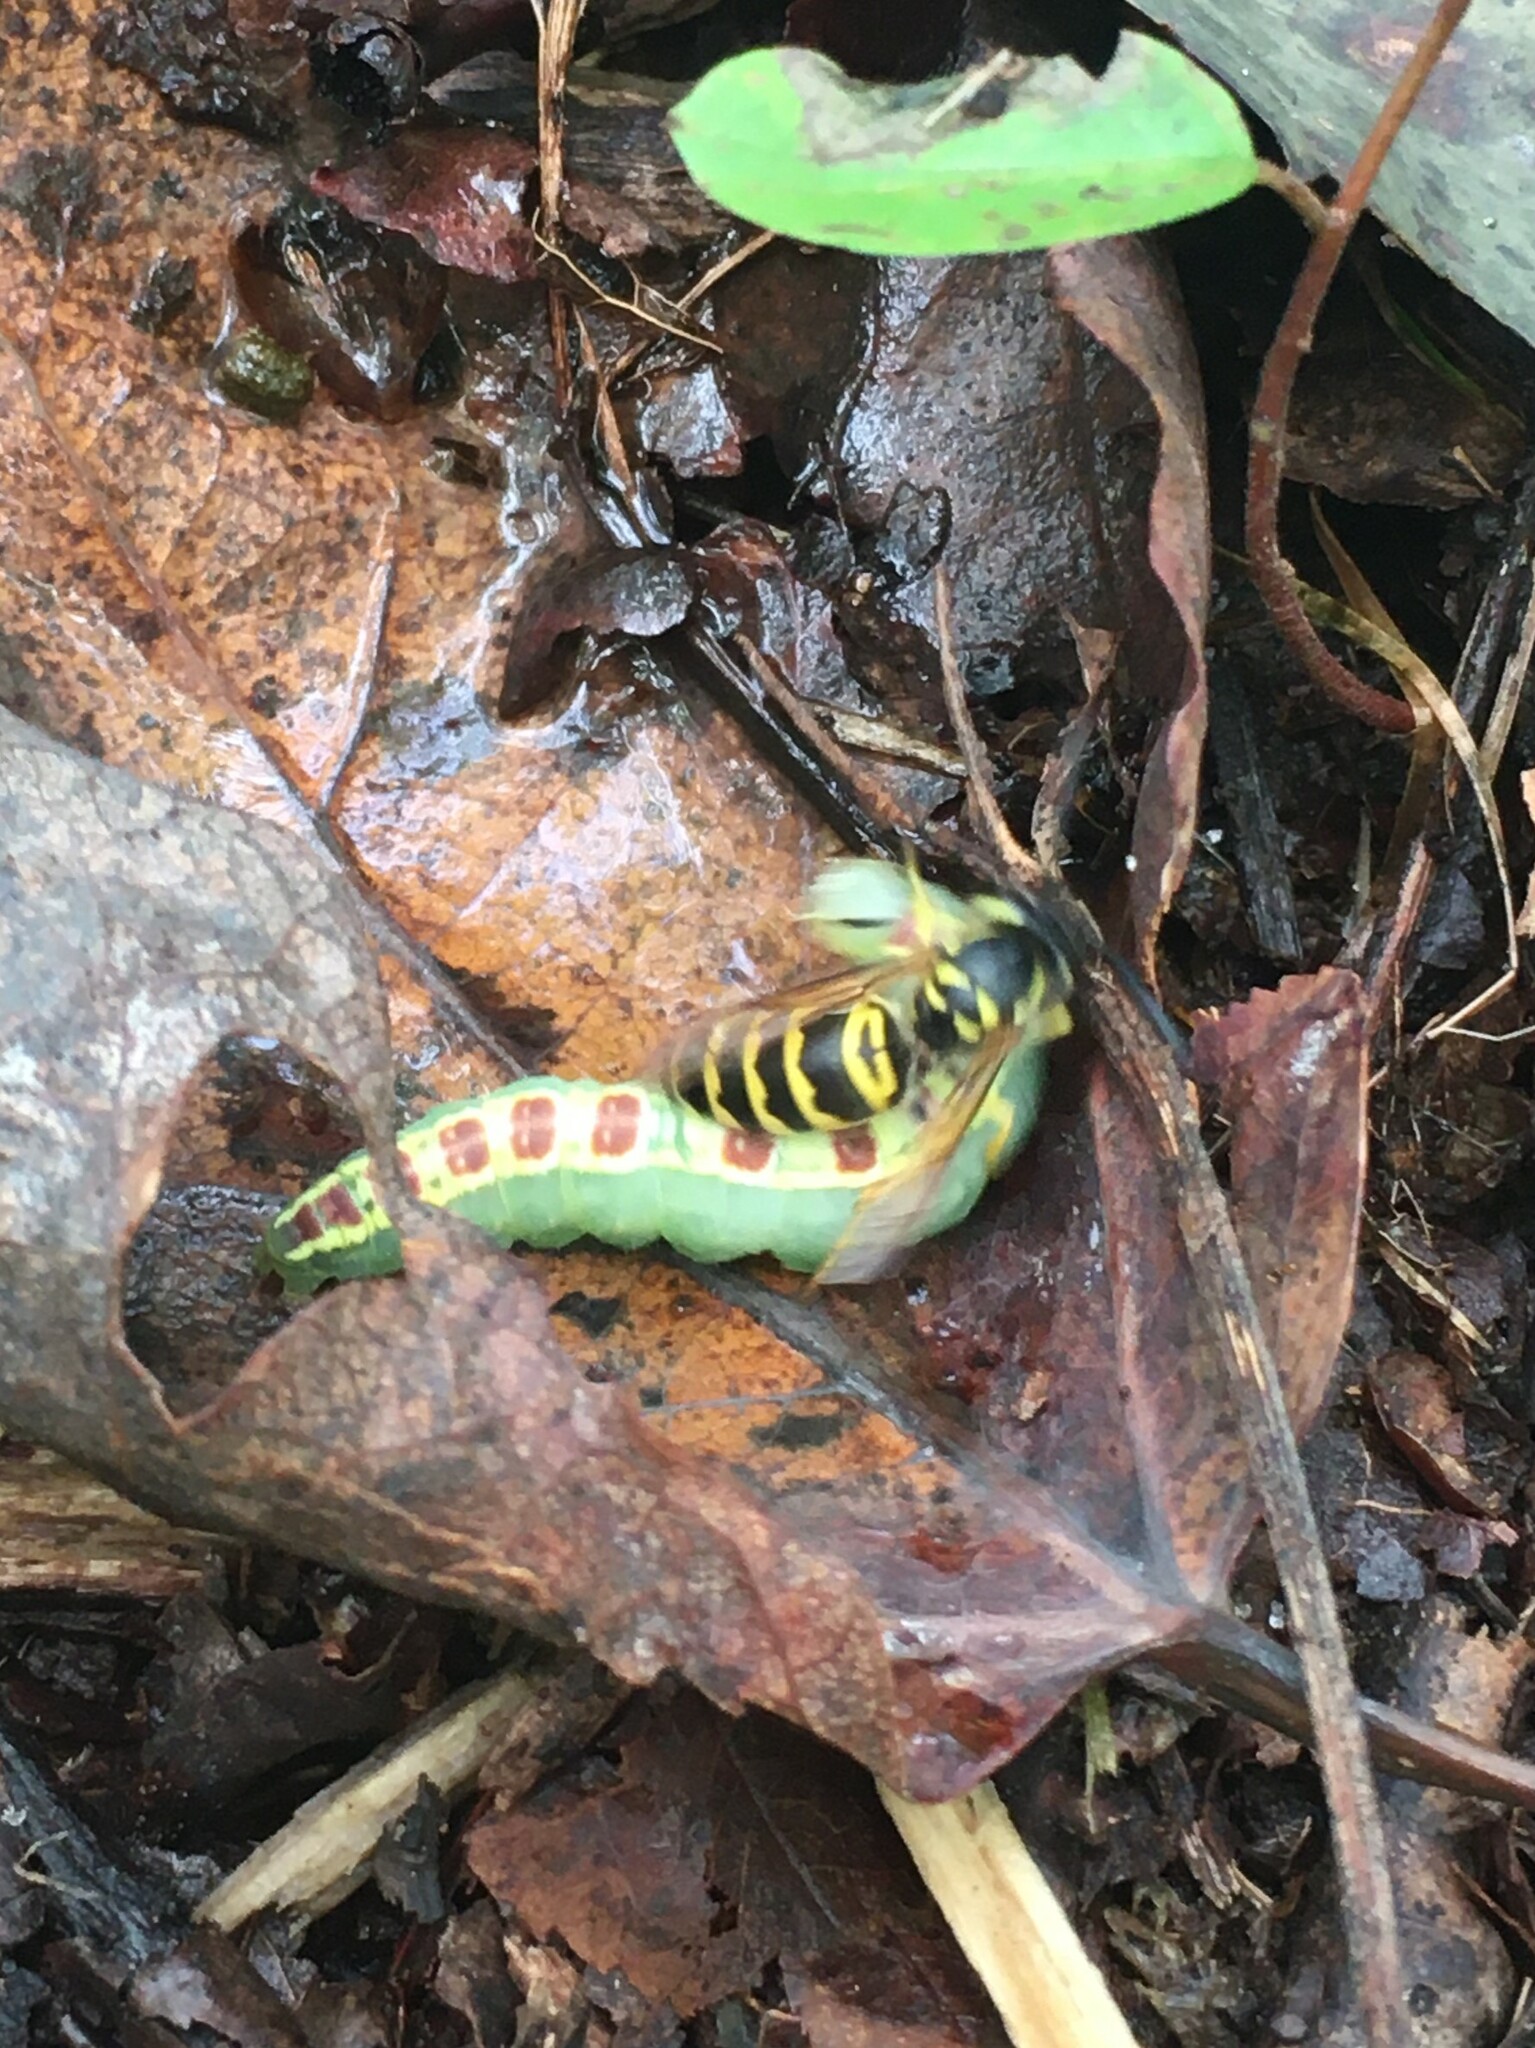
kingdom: Animalia
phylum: Arthropoda
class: Insecta
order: Lepidoptera
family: Notodontidae
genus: Gluphisia
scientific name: Gluphisia septentrionis
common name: Common gluphisia
